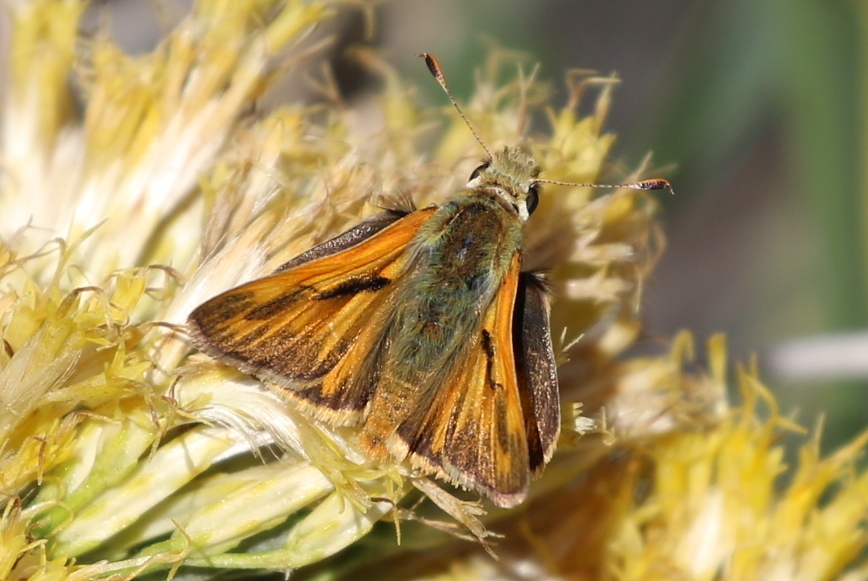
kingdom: Animalia
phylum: Arthropoda
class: Insecta
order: Lepidoptera
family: Hesperiidae
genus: Ochlodes
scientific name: Ochlodes sylvanoides
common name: Woodland skipper
